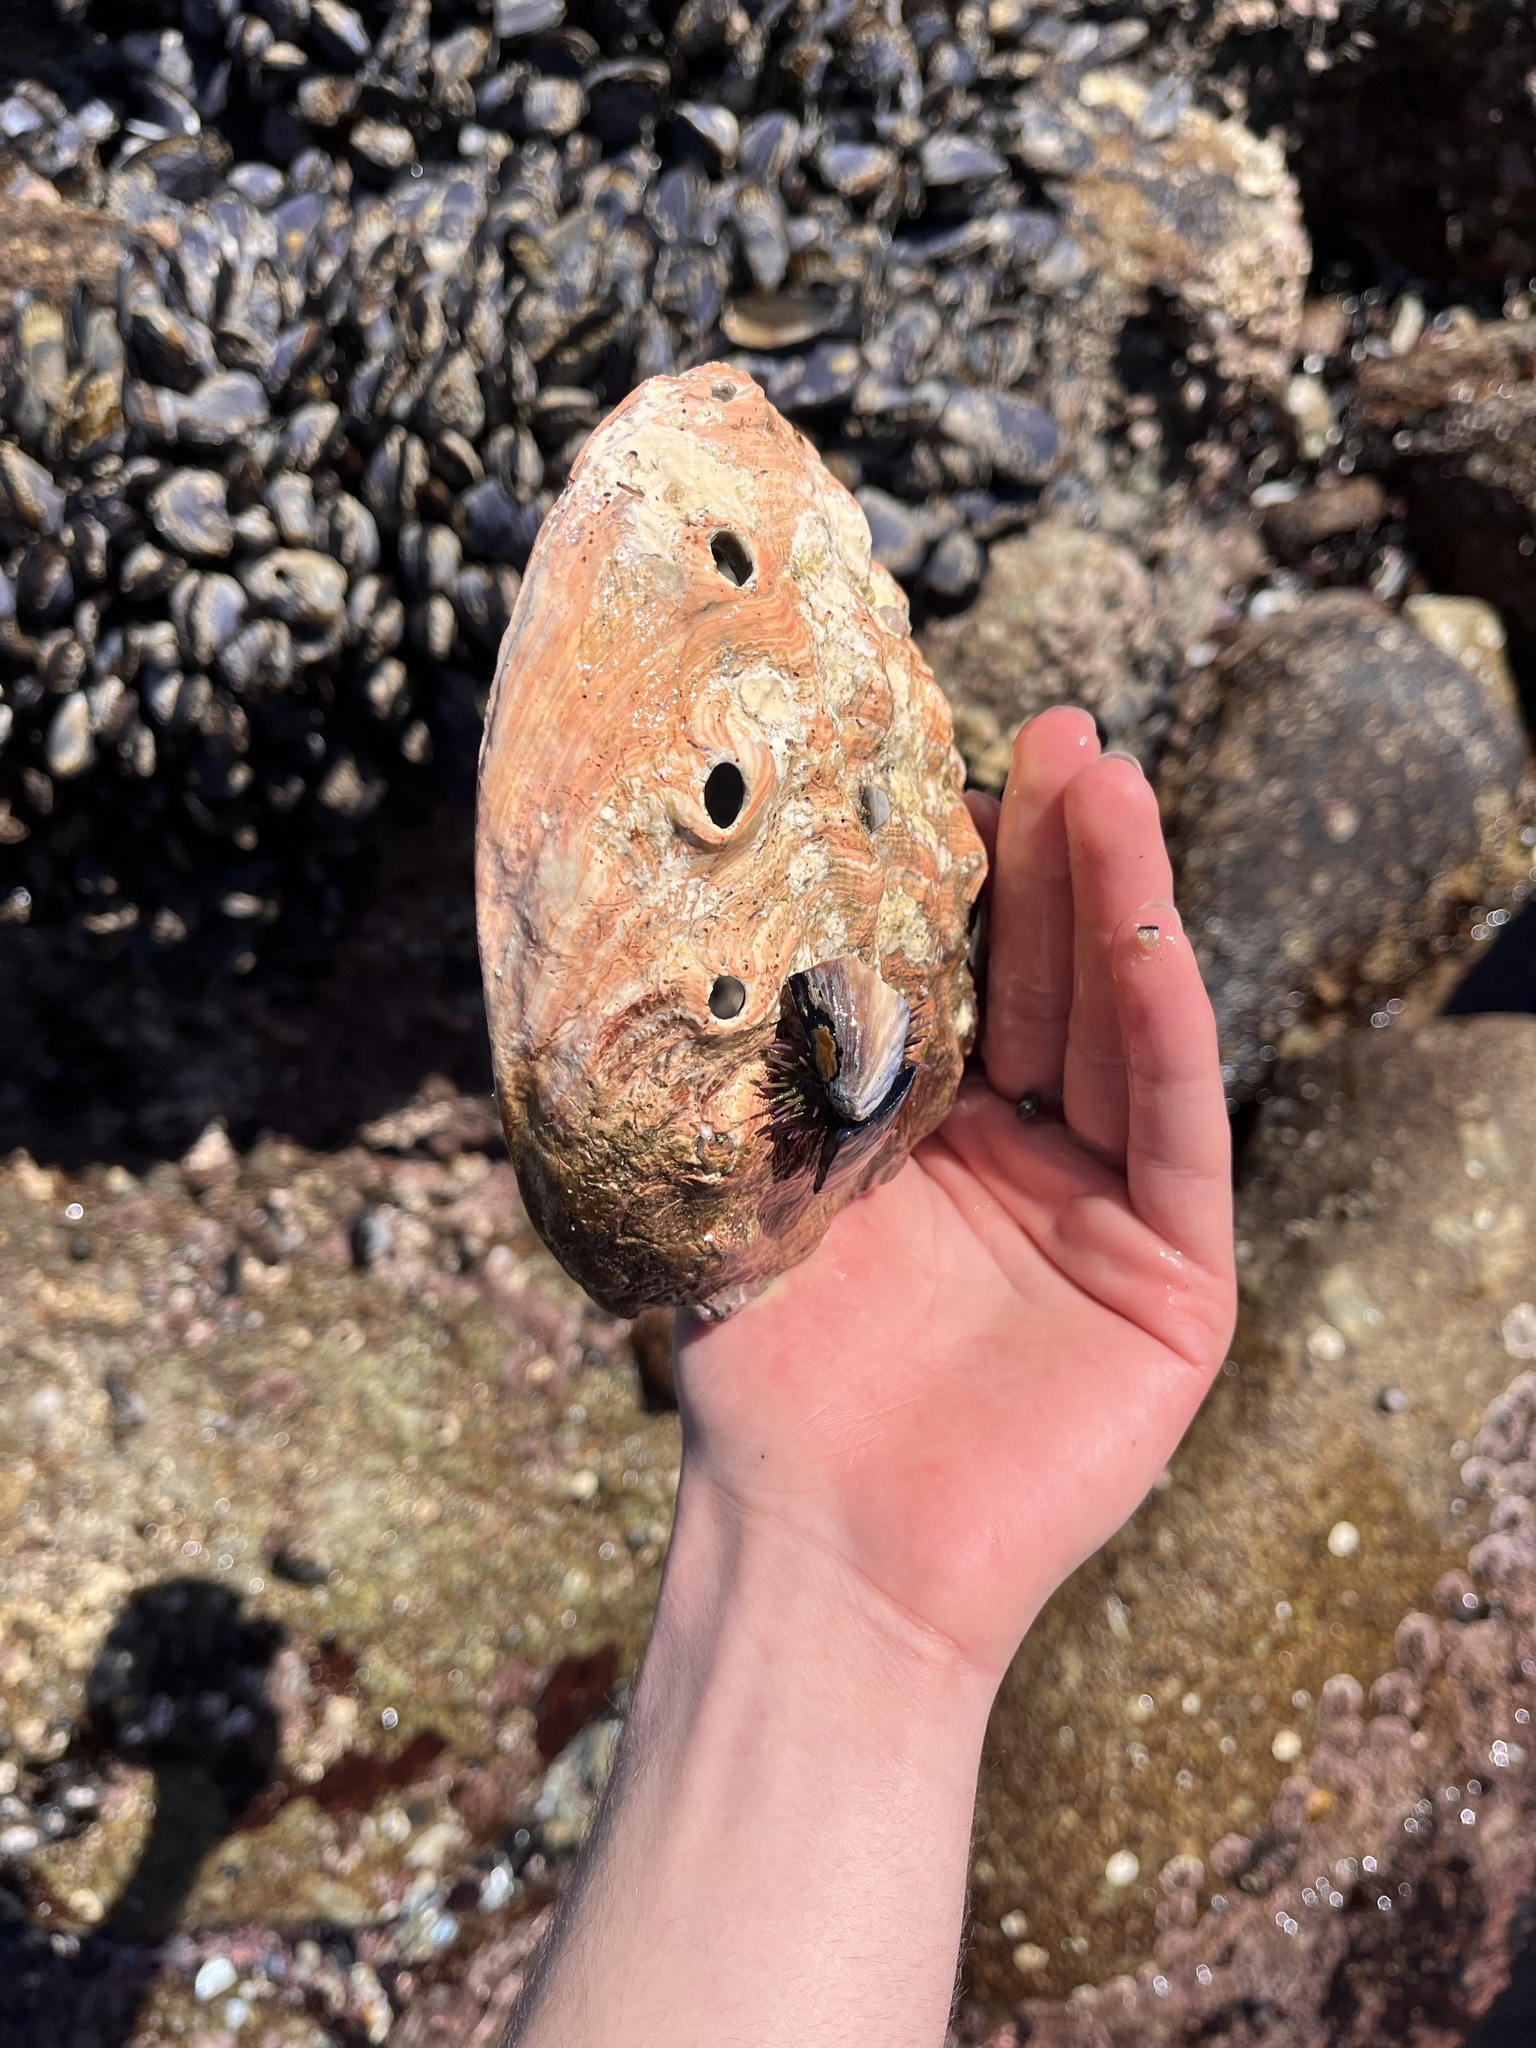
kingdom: Animalia
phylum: Mollusca
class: Gastropoda
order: Lepetellida
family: Haliotidae
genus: Haliotis
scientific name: Haliotis rufescens
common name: Red abalone
